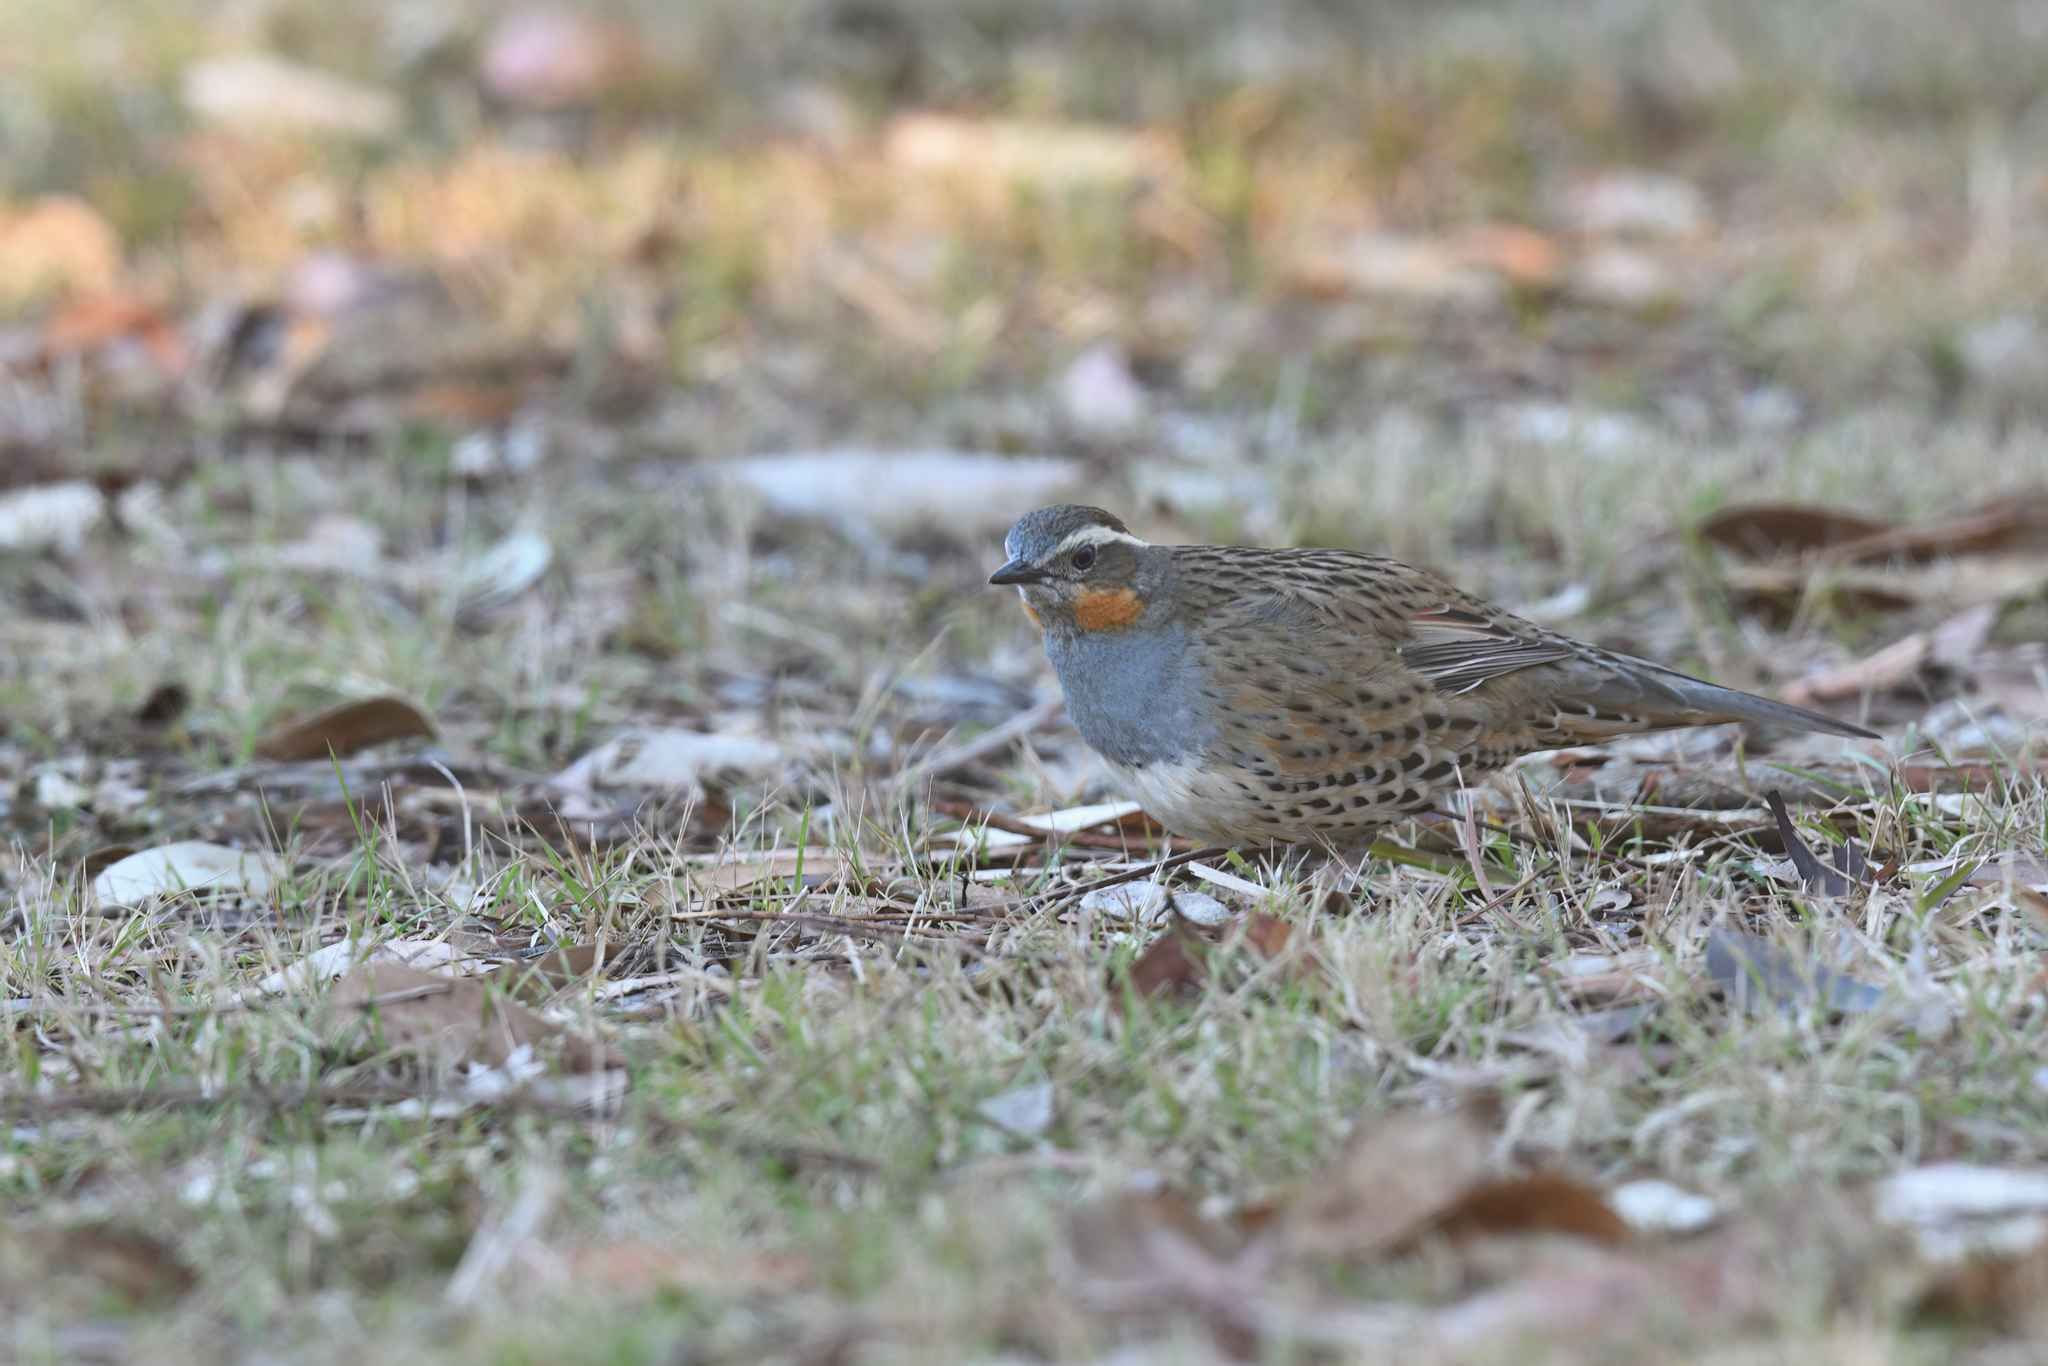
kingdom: Animalia
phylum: Chordata
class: Aves
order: Passeriformes
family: Psophodidae
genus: Cinclosoma
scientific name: Cinclosoma punctatum
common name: Spotted quail-thrush
